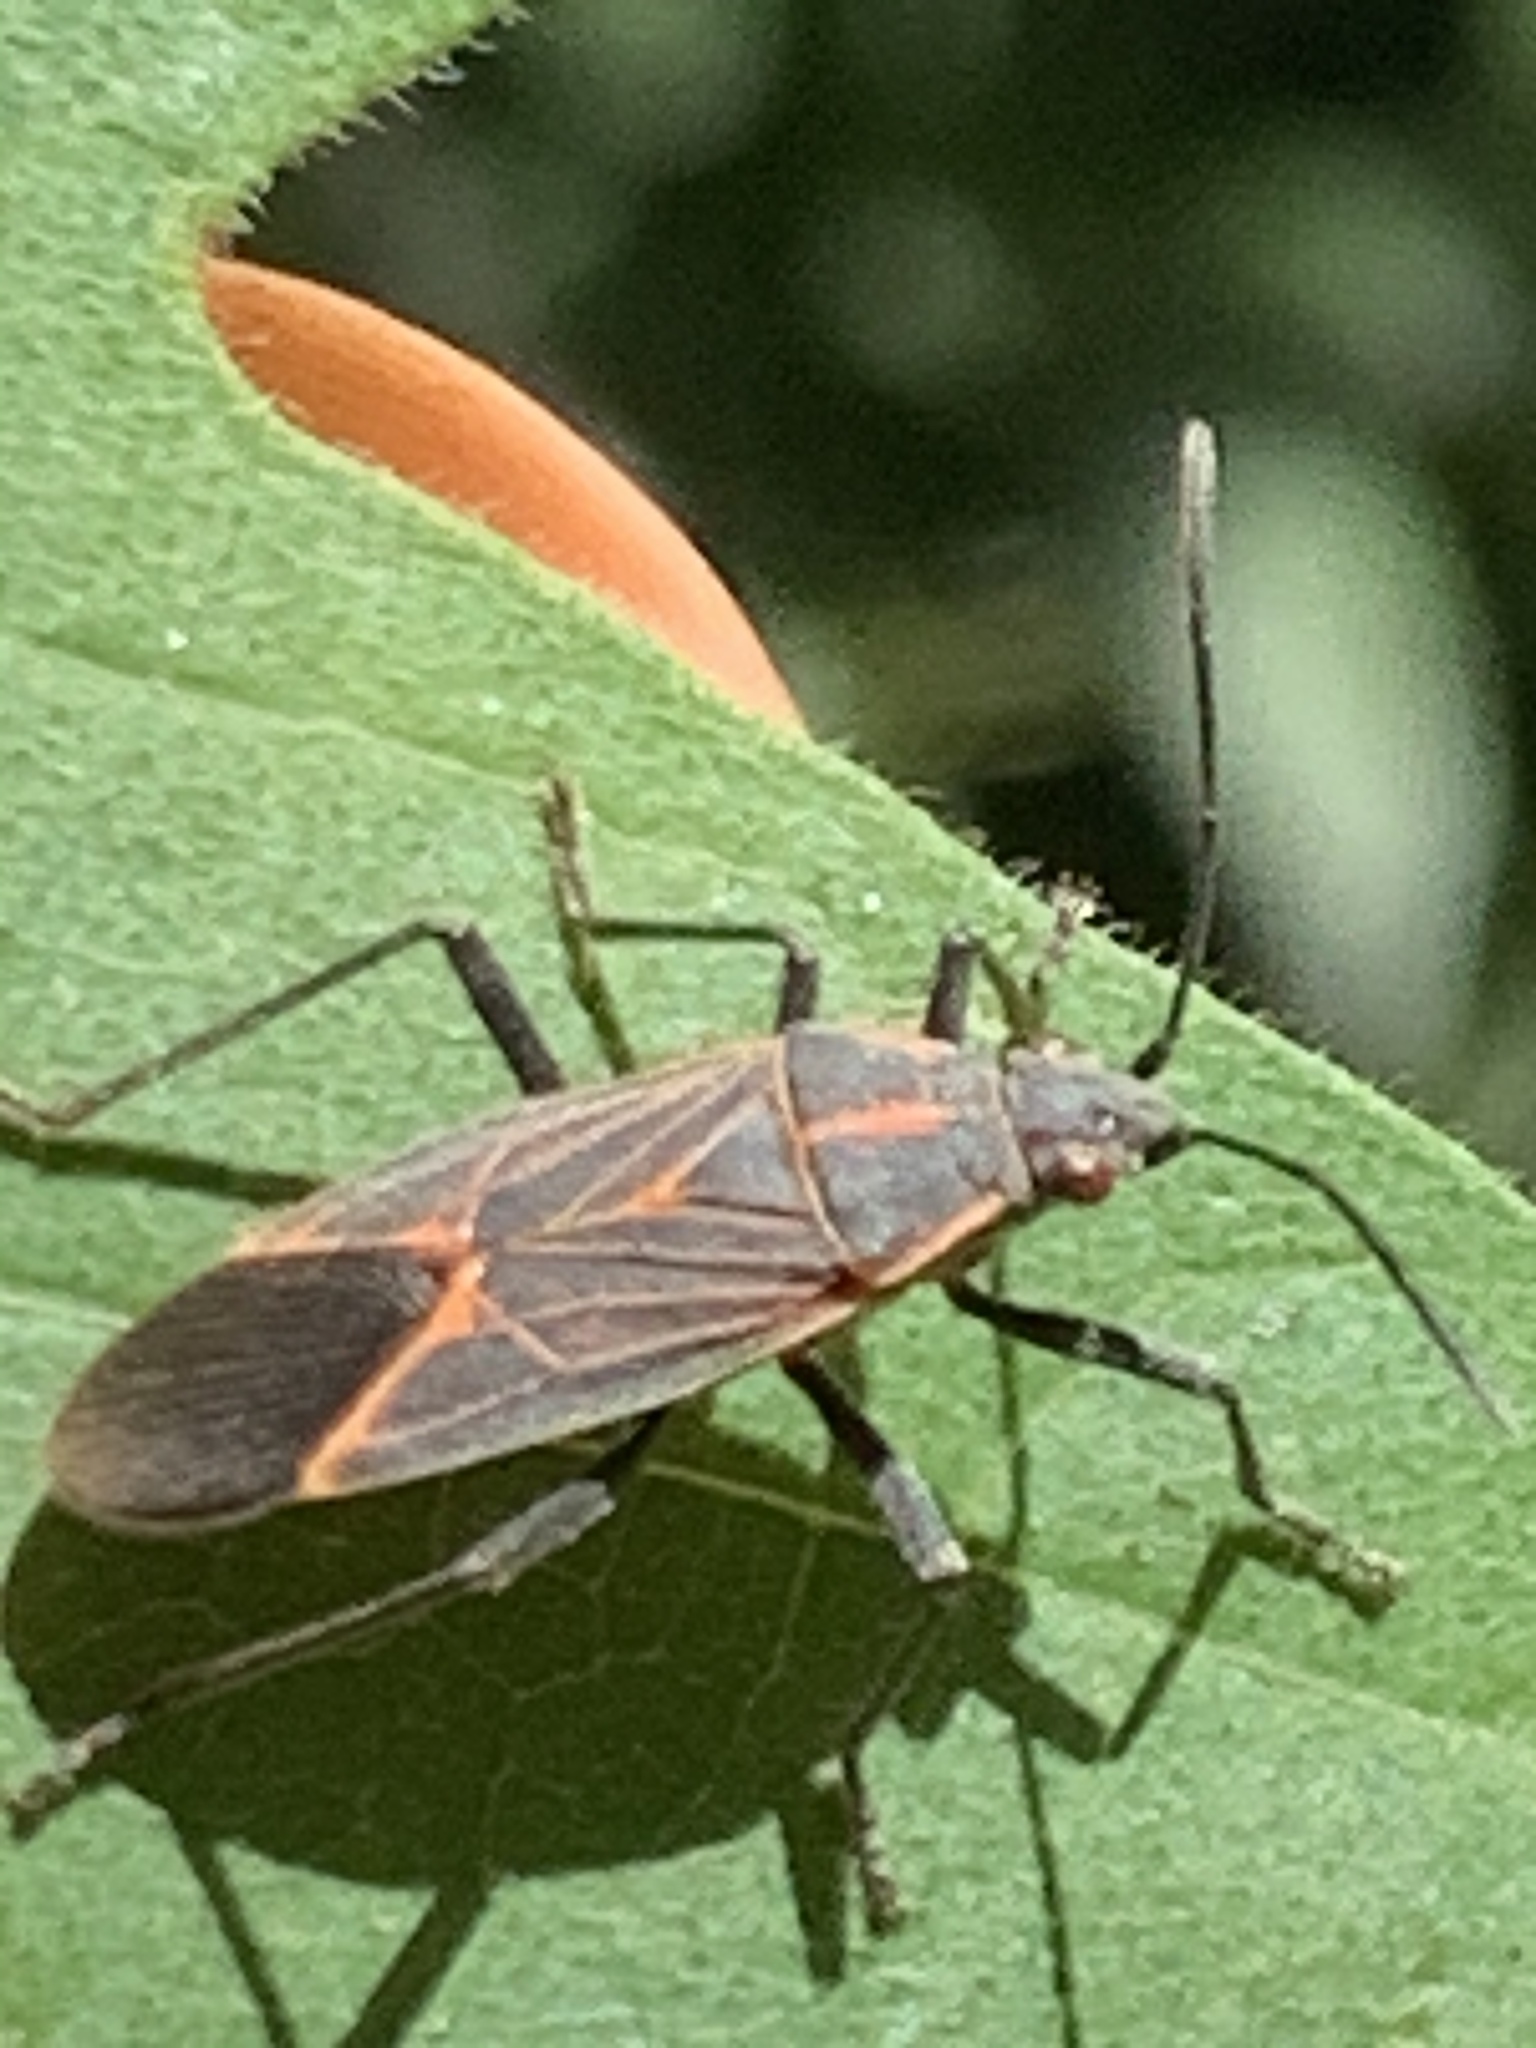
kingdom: Animalia
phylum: Arthropoda
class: Insecta
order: Hemiptera
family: Rhopalidae
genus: Boisea
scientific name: Boisea rubrolineata
